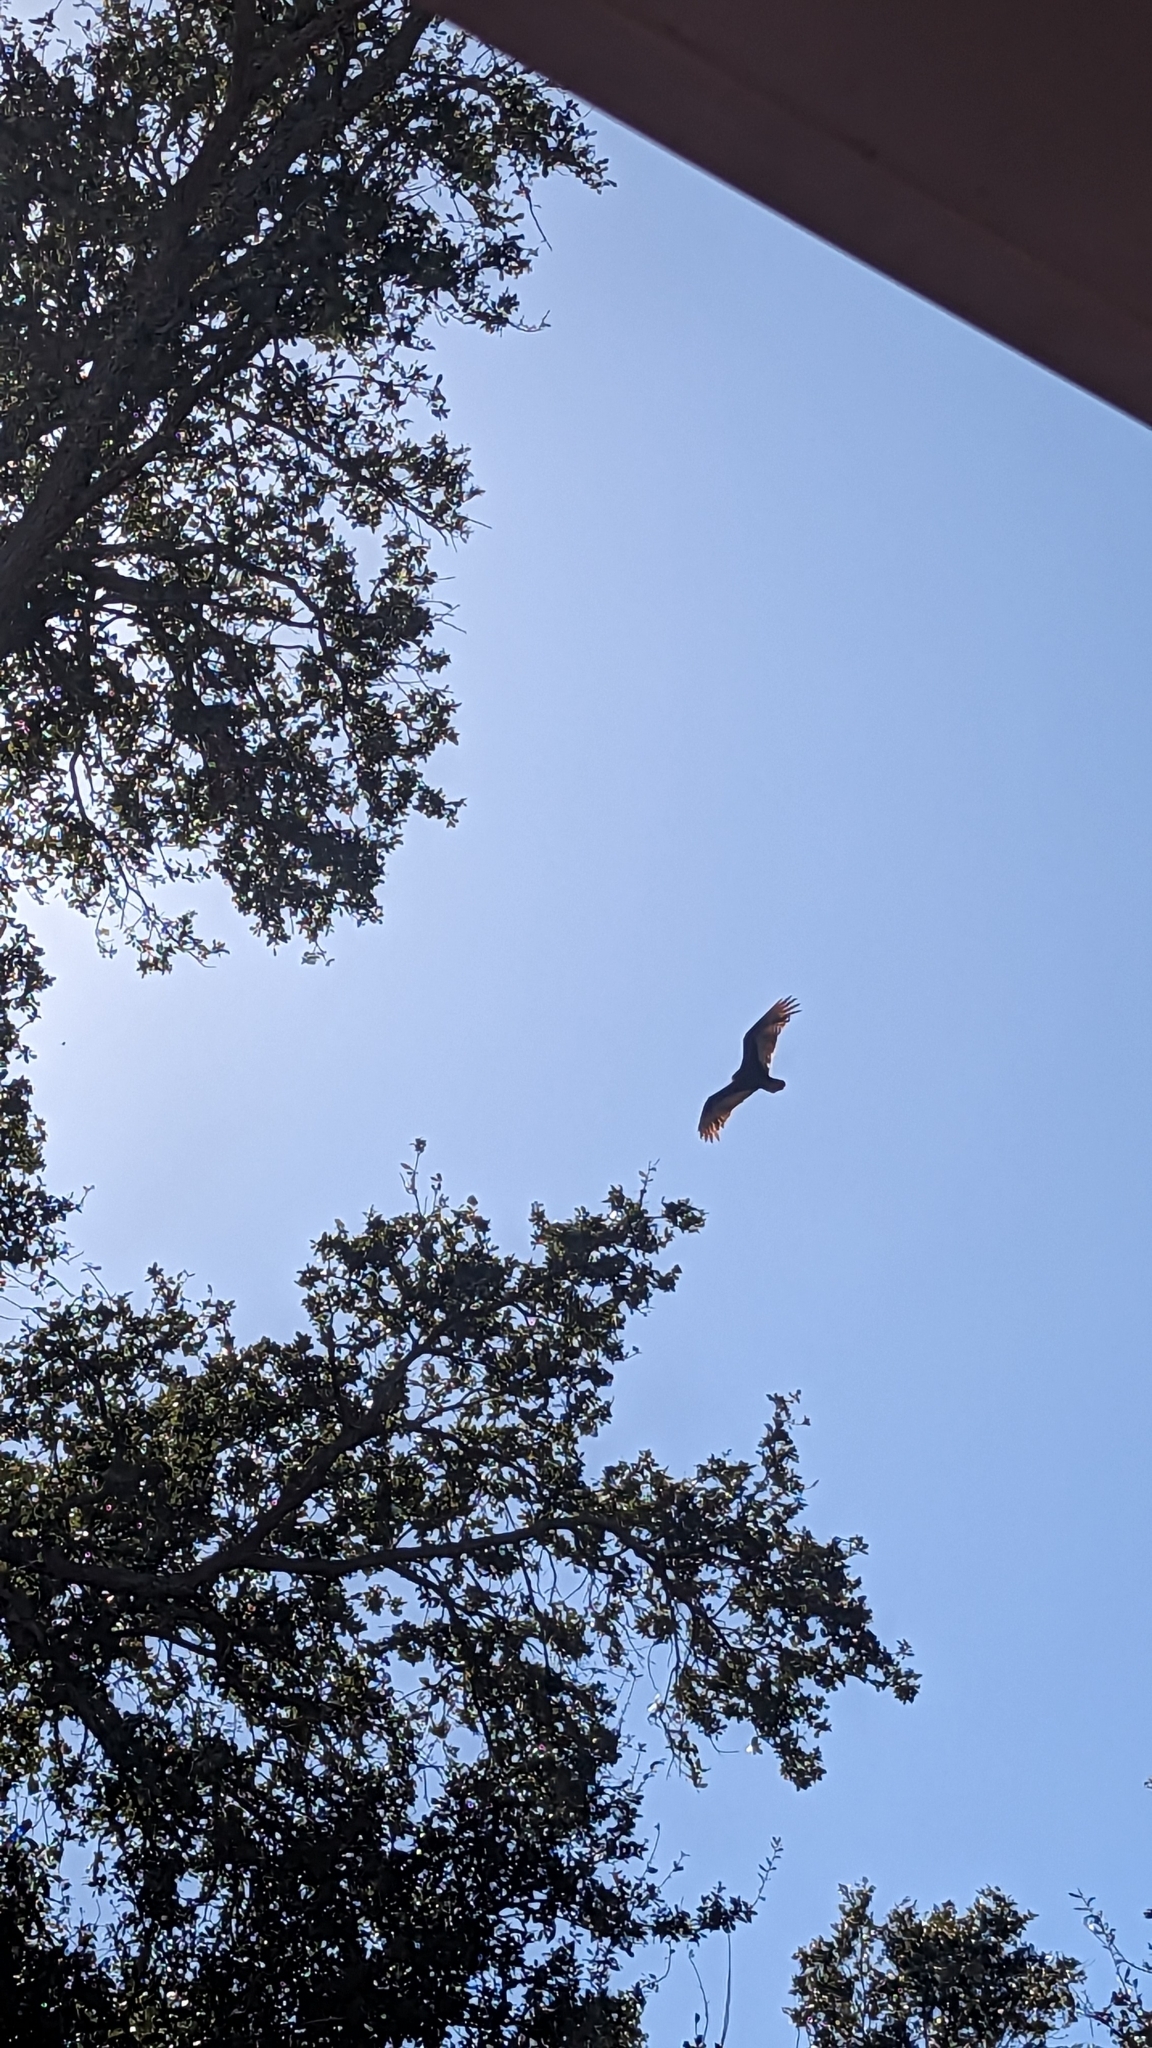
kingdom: Animalia
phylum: Chordata
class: Aves
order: Accipitriformes
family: Cathartidae
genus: Cathartes
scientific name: Cathartes aura
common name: Turkey vulture
